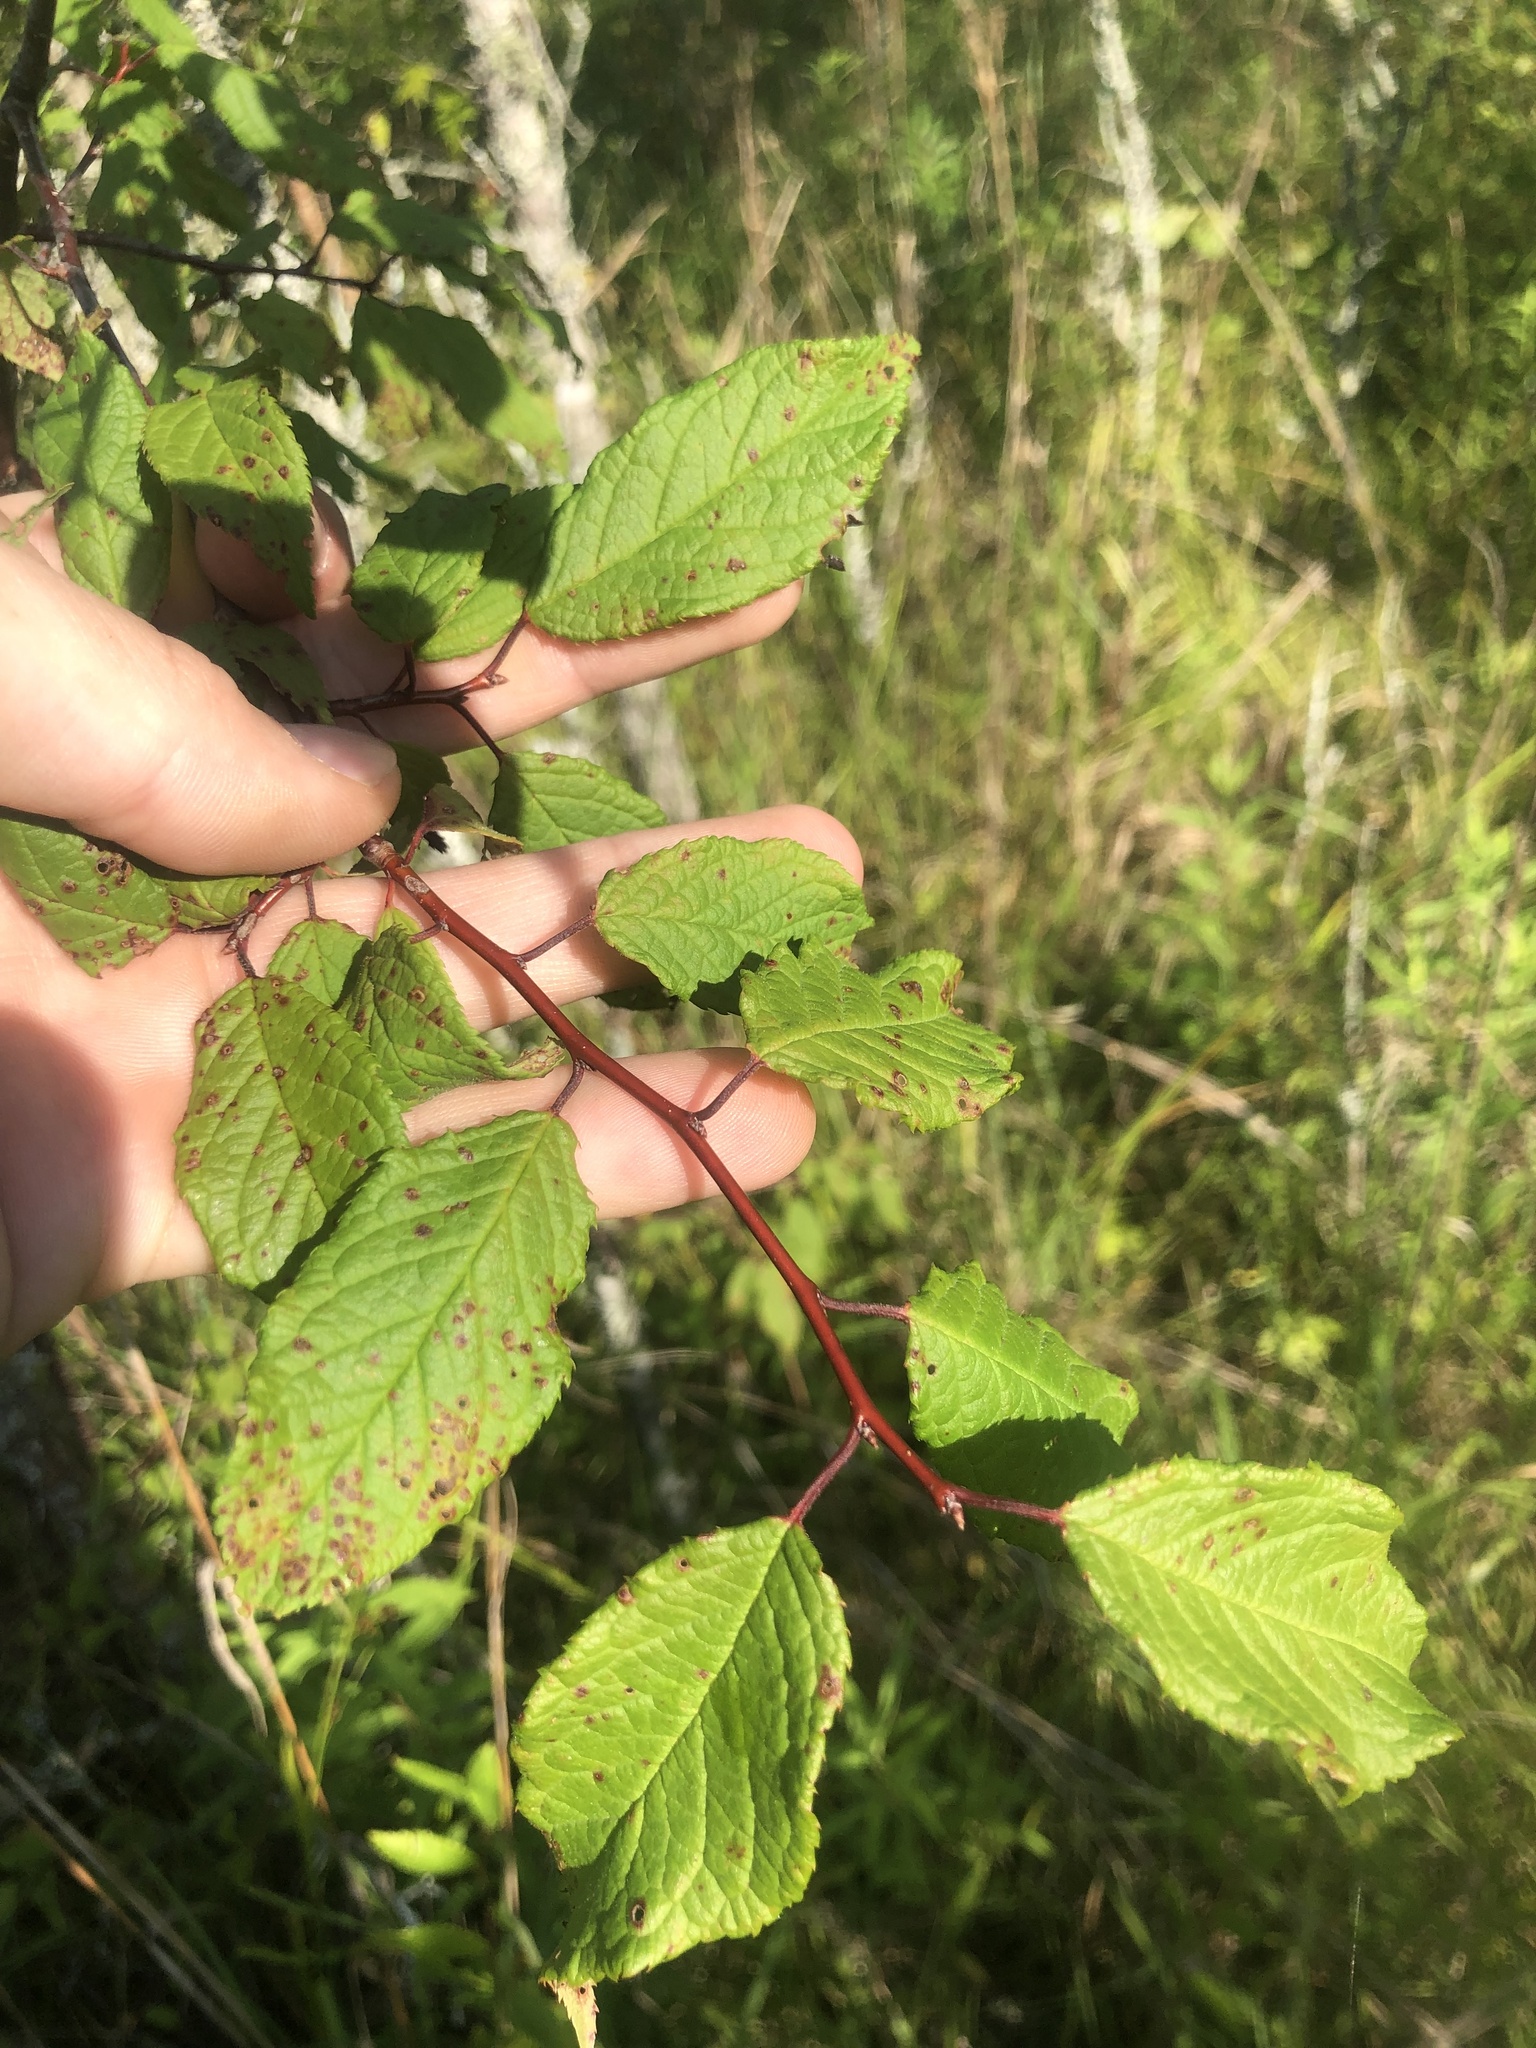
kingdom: Plantae
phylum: Tracheophyta
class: Magnoliopsida
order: Rosales
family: Rosaceae
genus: Prunus
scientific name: Prunus mexicana
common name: Mexican plum
